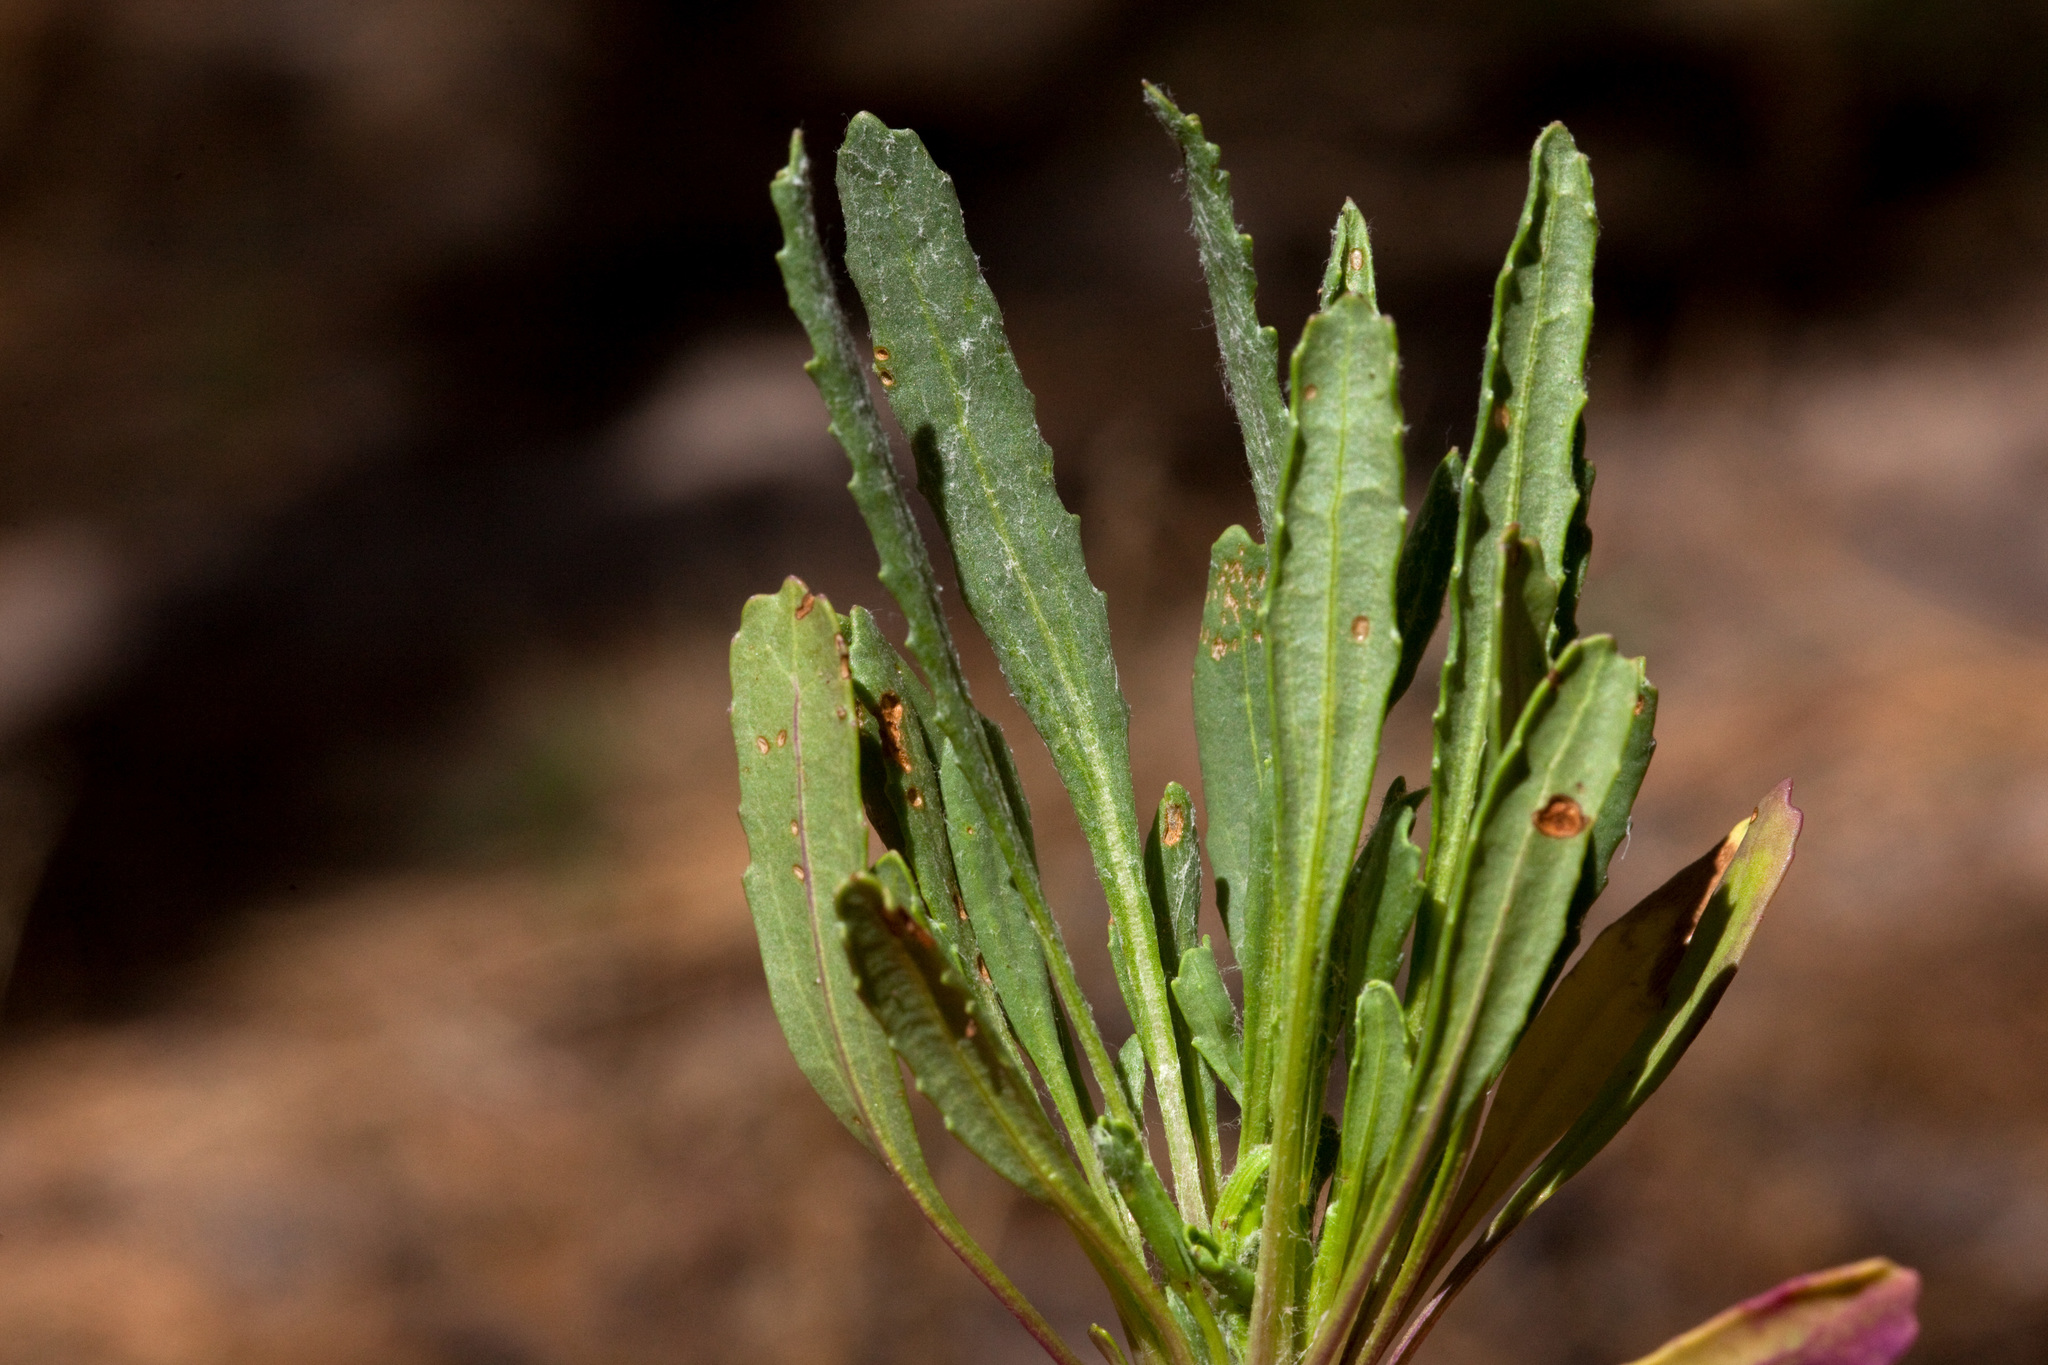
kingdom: Plantae
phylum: Tracheophyta
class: Magnoliopsida
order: Asterales
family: Asteraceae
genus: Packera
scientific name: Packera neomexicana
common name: New mexico butterweed
